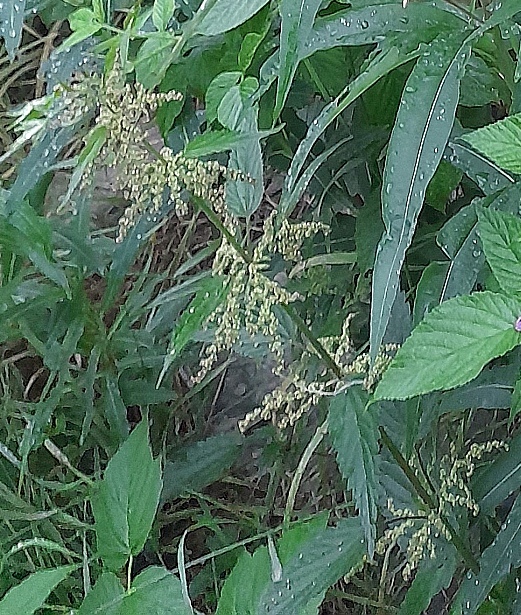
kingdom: Plantae
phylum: Tracheophyta
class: Magnoliopsida
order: Rosales
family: Urticaceae
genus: Urtica
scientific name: Urtica dioica
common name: Common nettle
